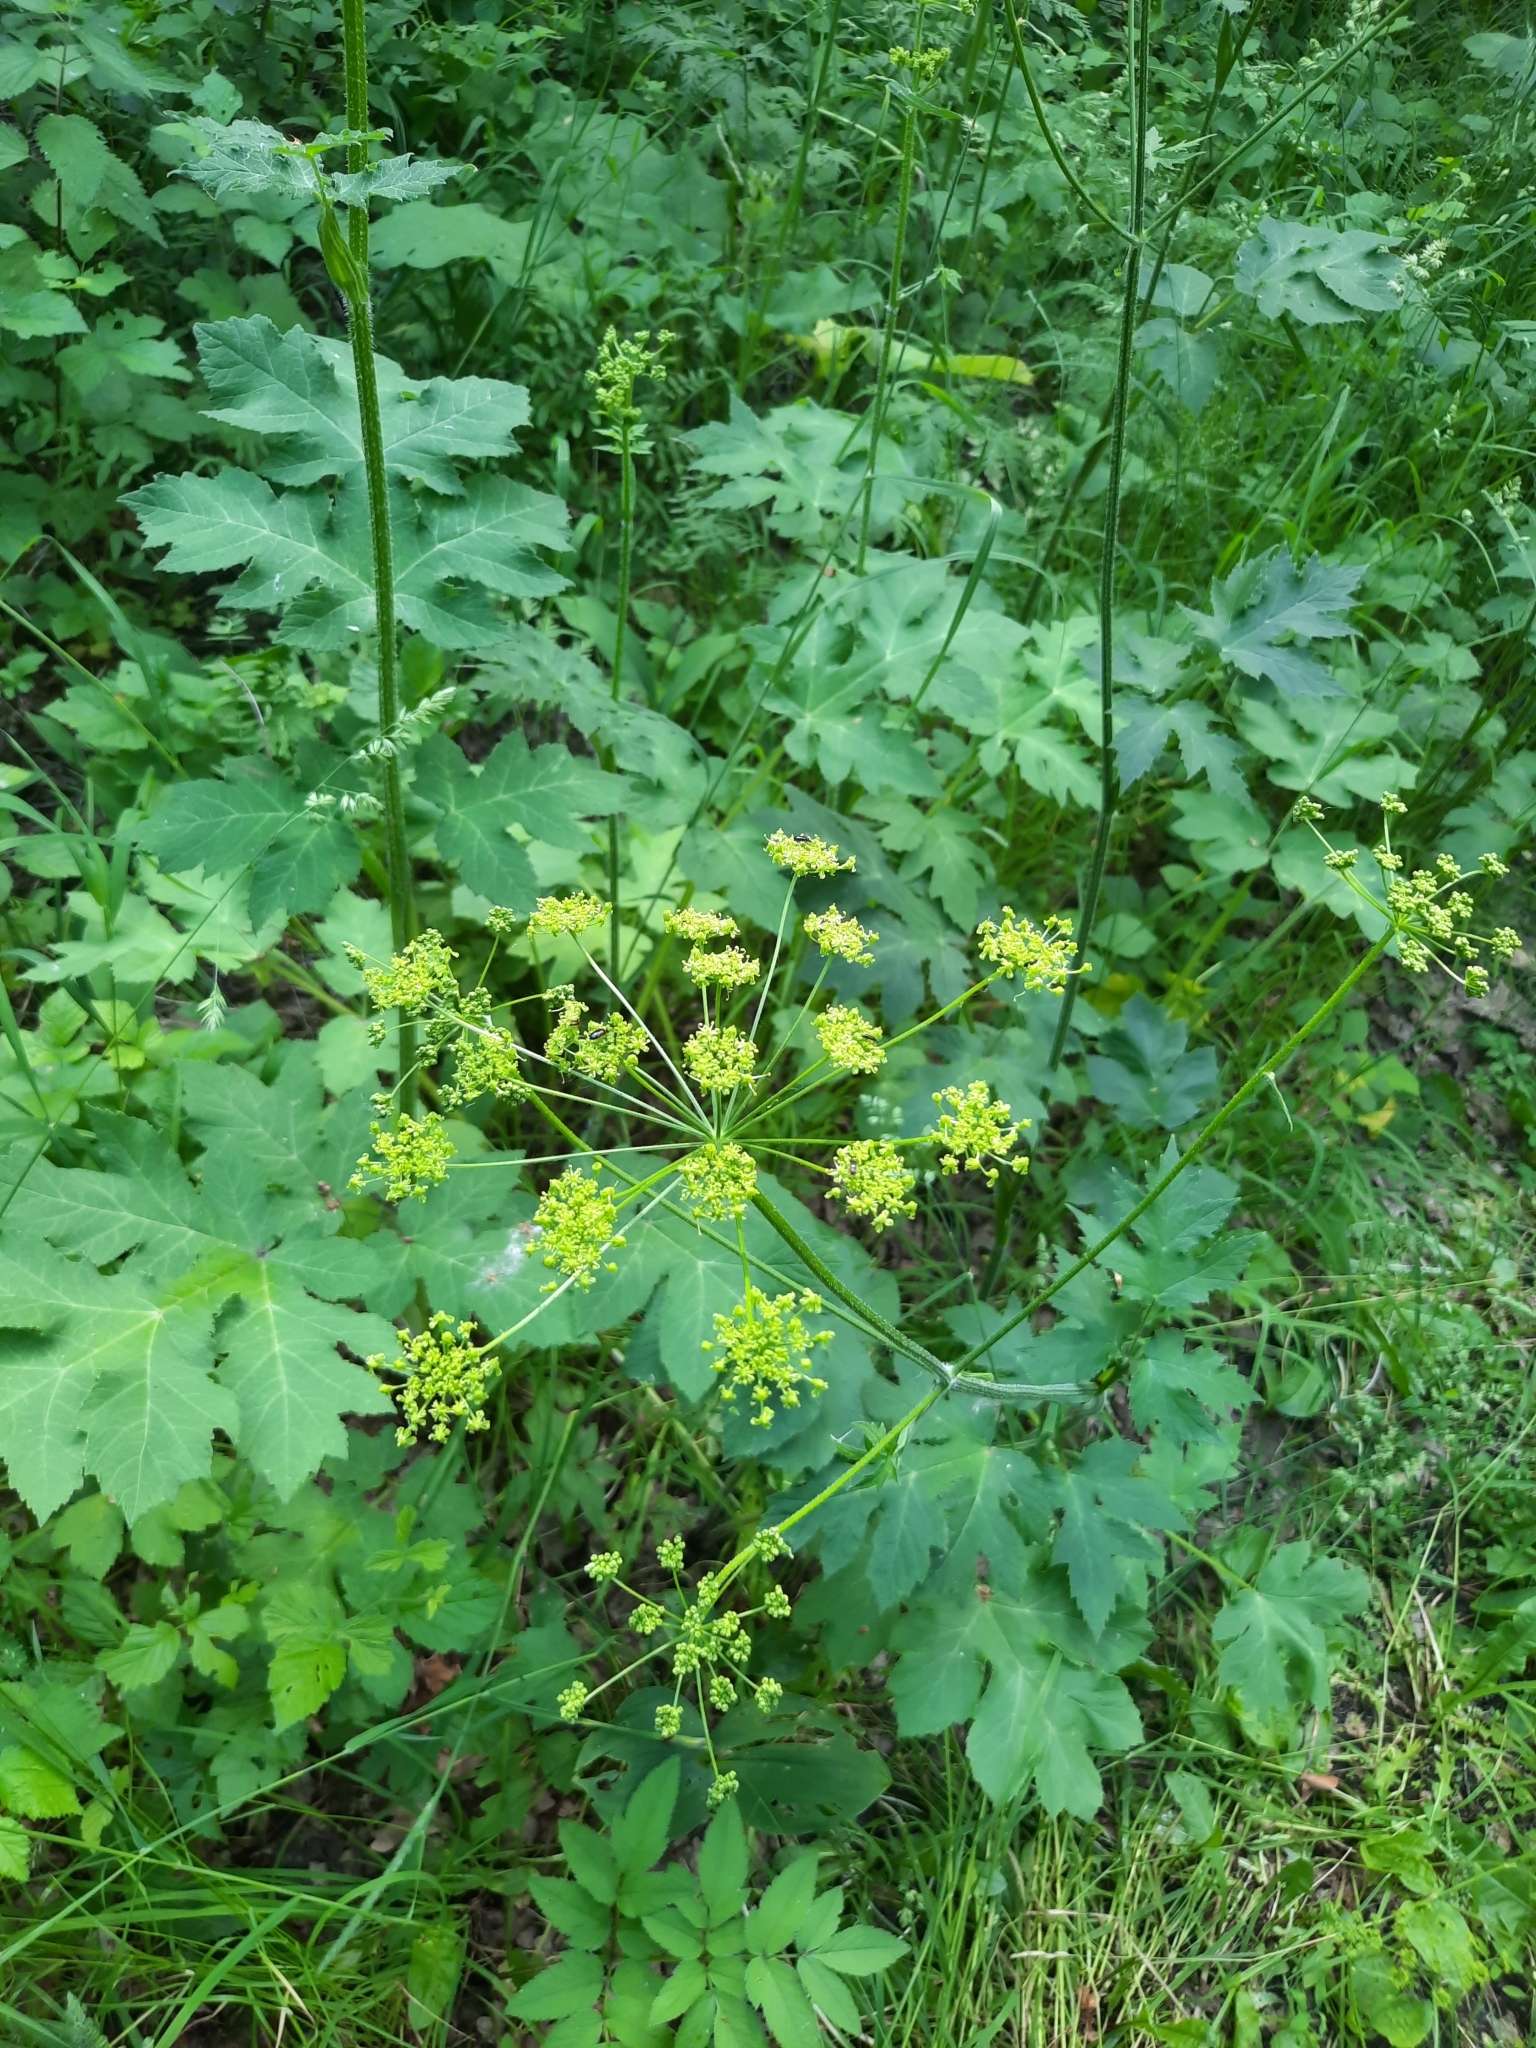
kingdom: Plantae
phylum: Tracheophyta
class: Magnoliopsida
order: Apiales
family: Apiaceae
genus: Heracleum
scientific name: Heracleum sphondylium
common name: Hogweed
